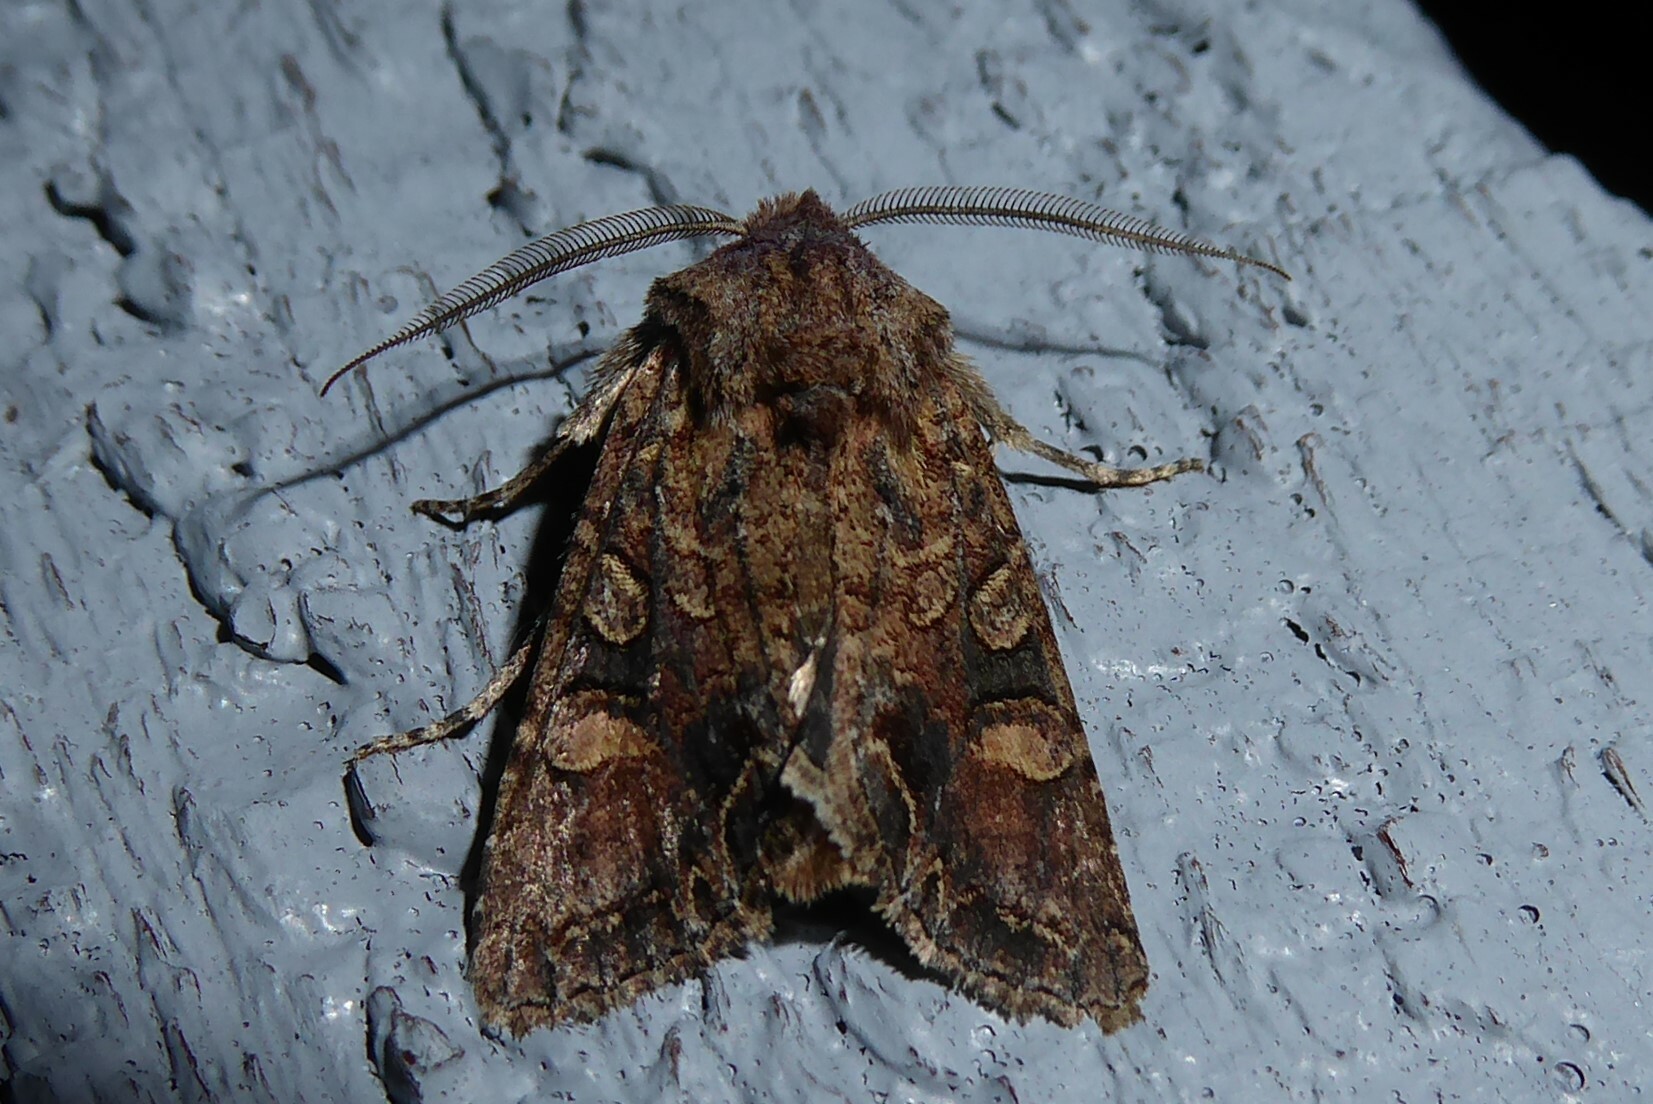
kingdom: Animalia
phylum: Arthropoda
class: Insecta
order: Lepidoptera
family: Noctuidae
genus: Ichneutica
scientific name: Ichneutica skelloni
